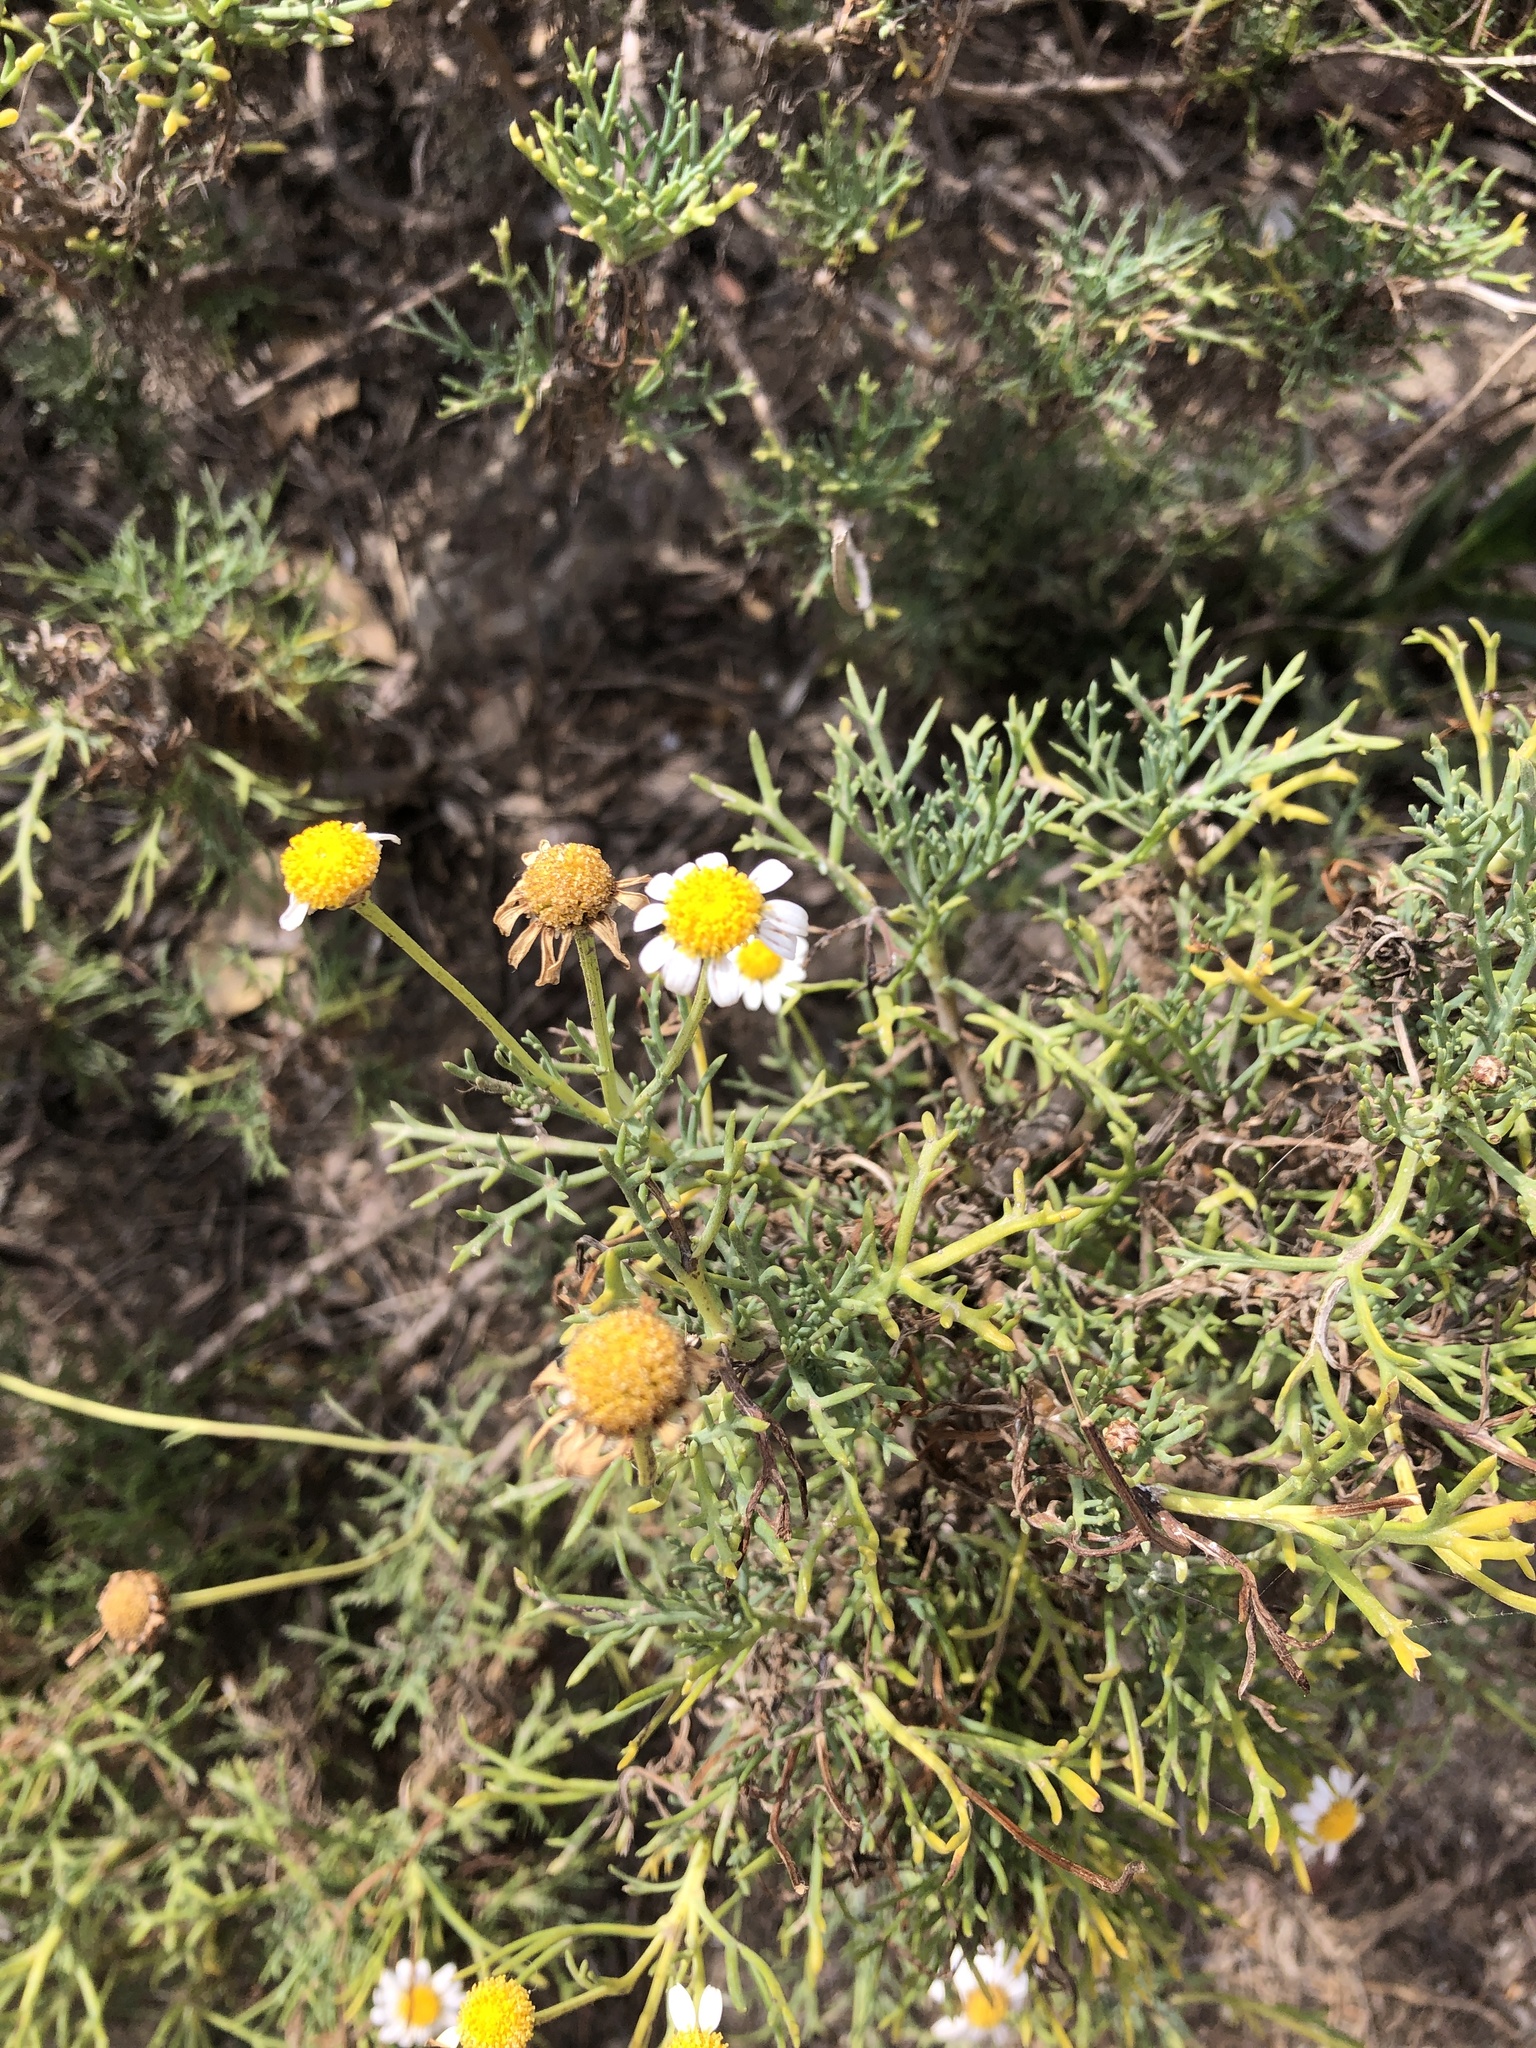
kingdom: Plantae
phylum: Tracheophyta
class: Magnoliopsida
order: Asterales
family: Asteraceae
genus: Argyranthemum
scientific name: Argyranthemum foeniculaceum
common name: Canary island marguerite
